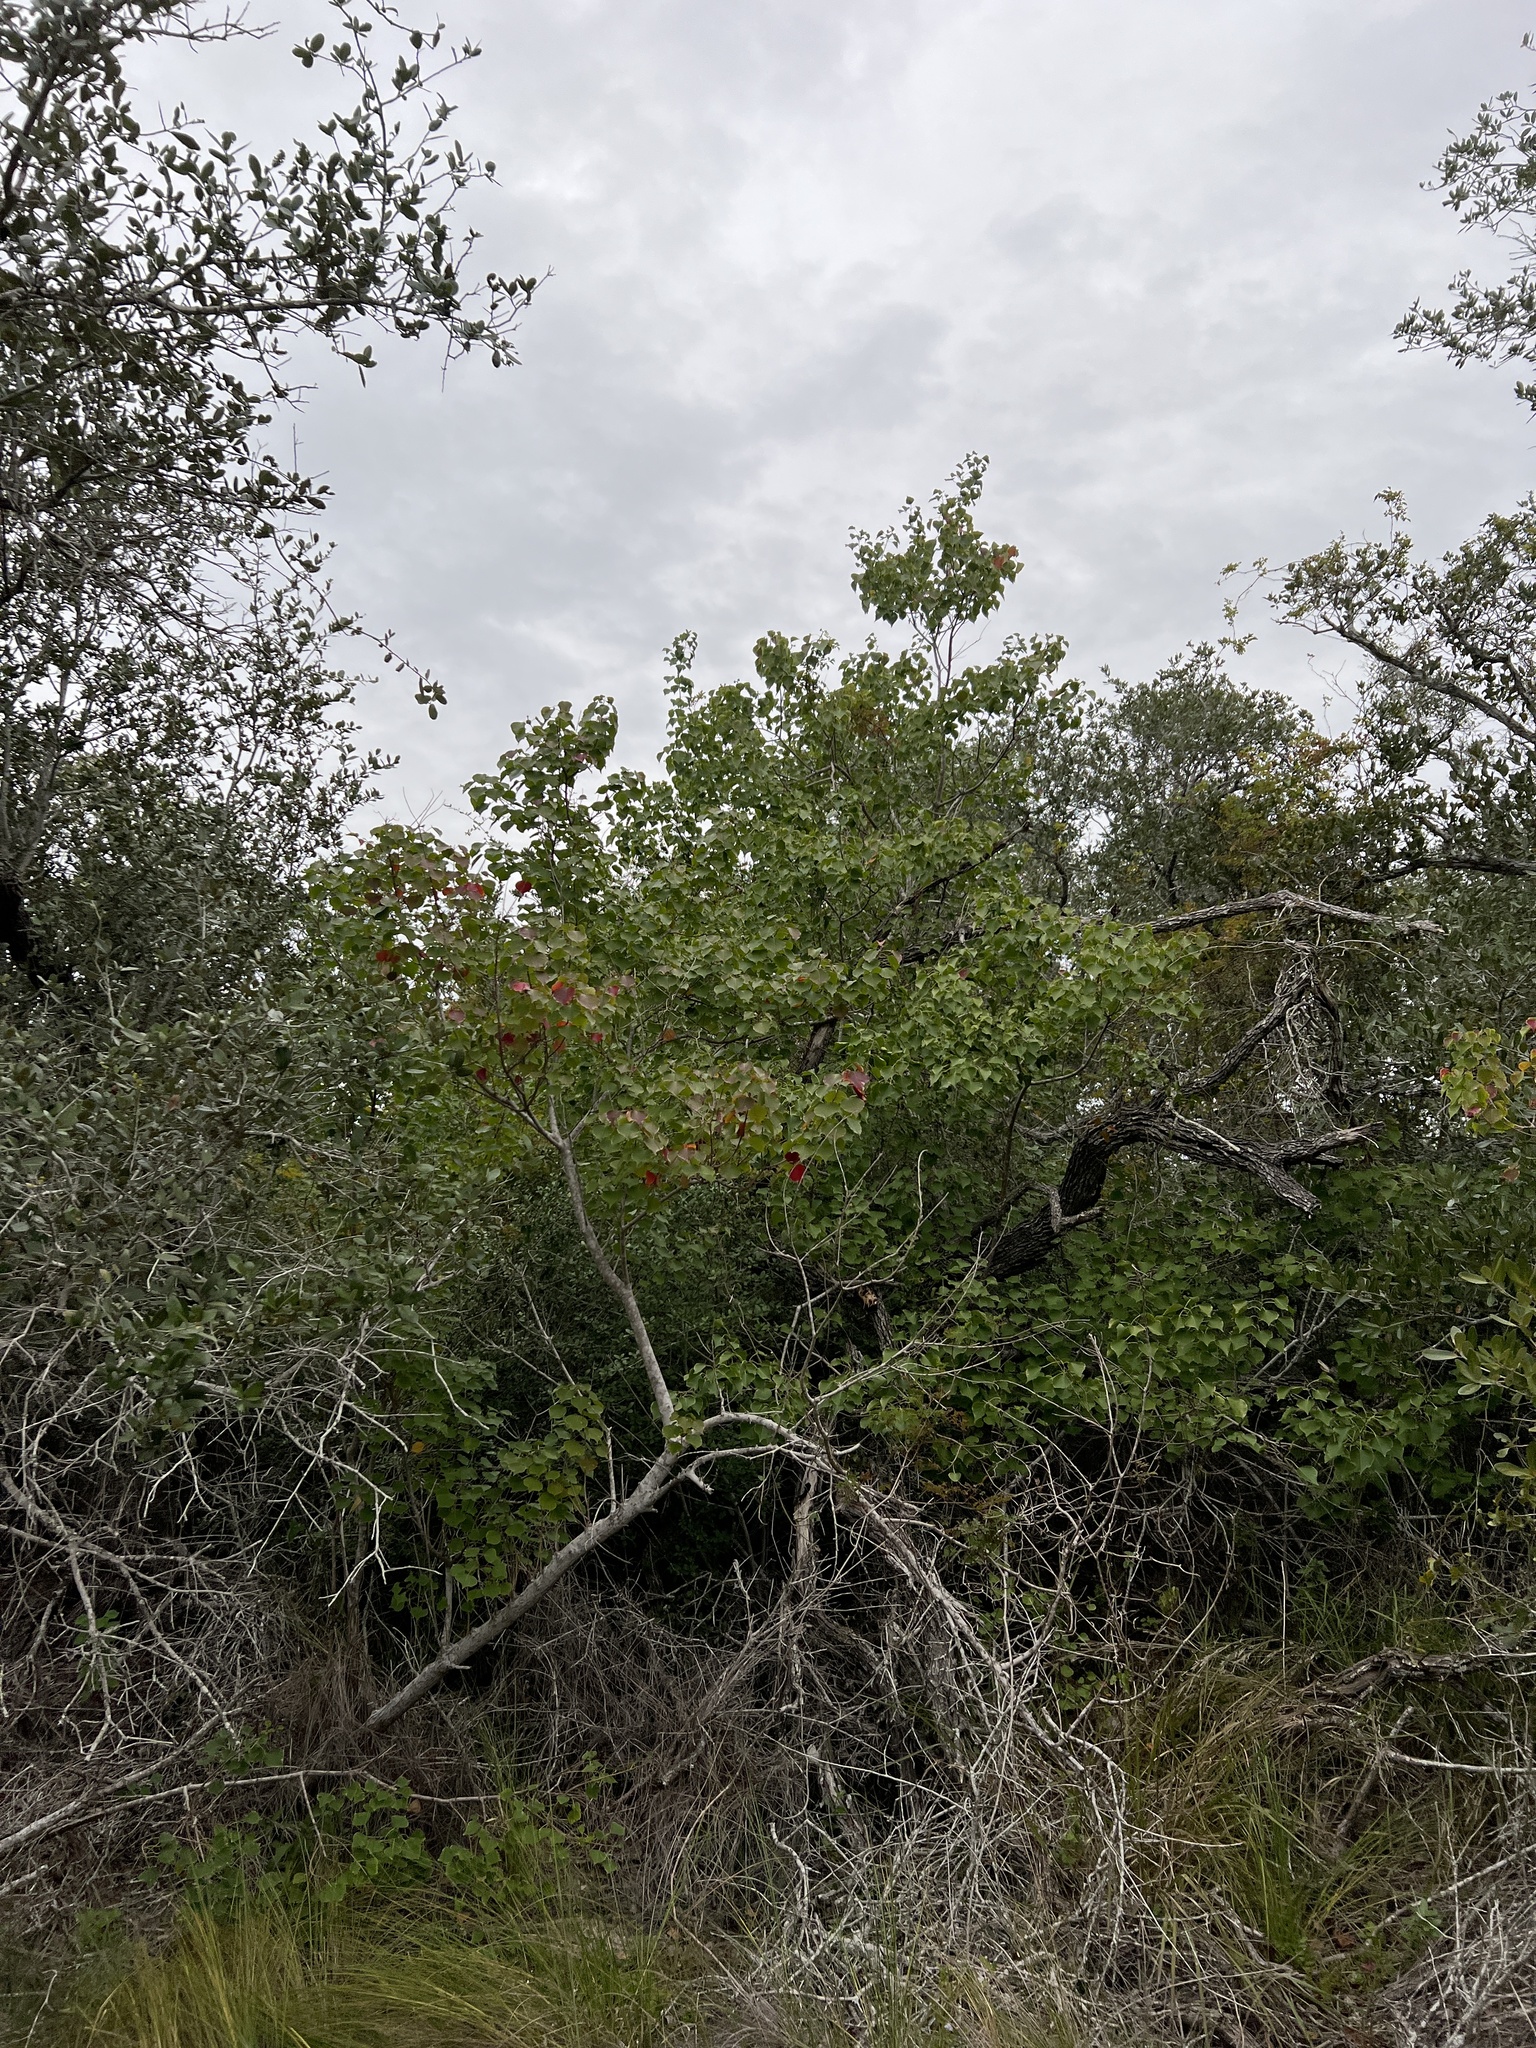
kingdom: Plantae
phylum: Tracheophyta
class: Magnoliopsida
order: Malpighiales
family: Euphorbiaceae
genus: Triadica
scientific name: Triadica sebifera
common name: Chinese tallow
